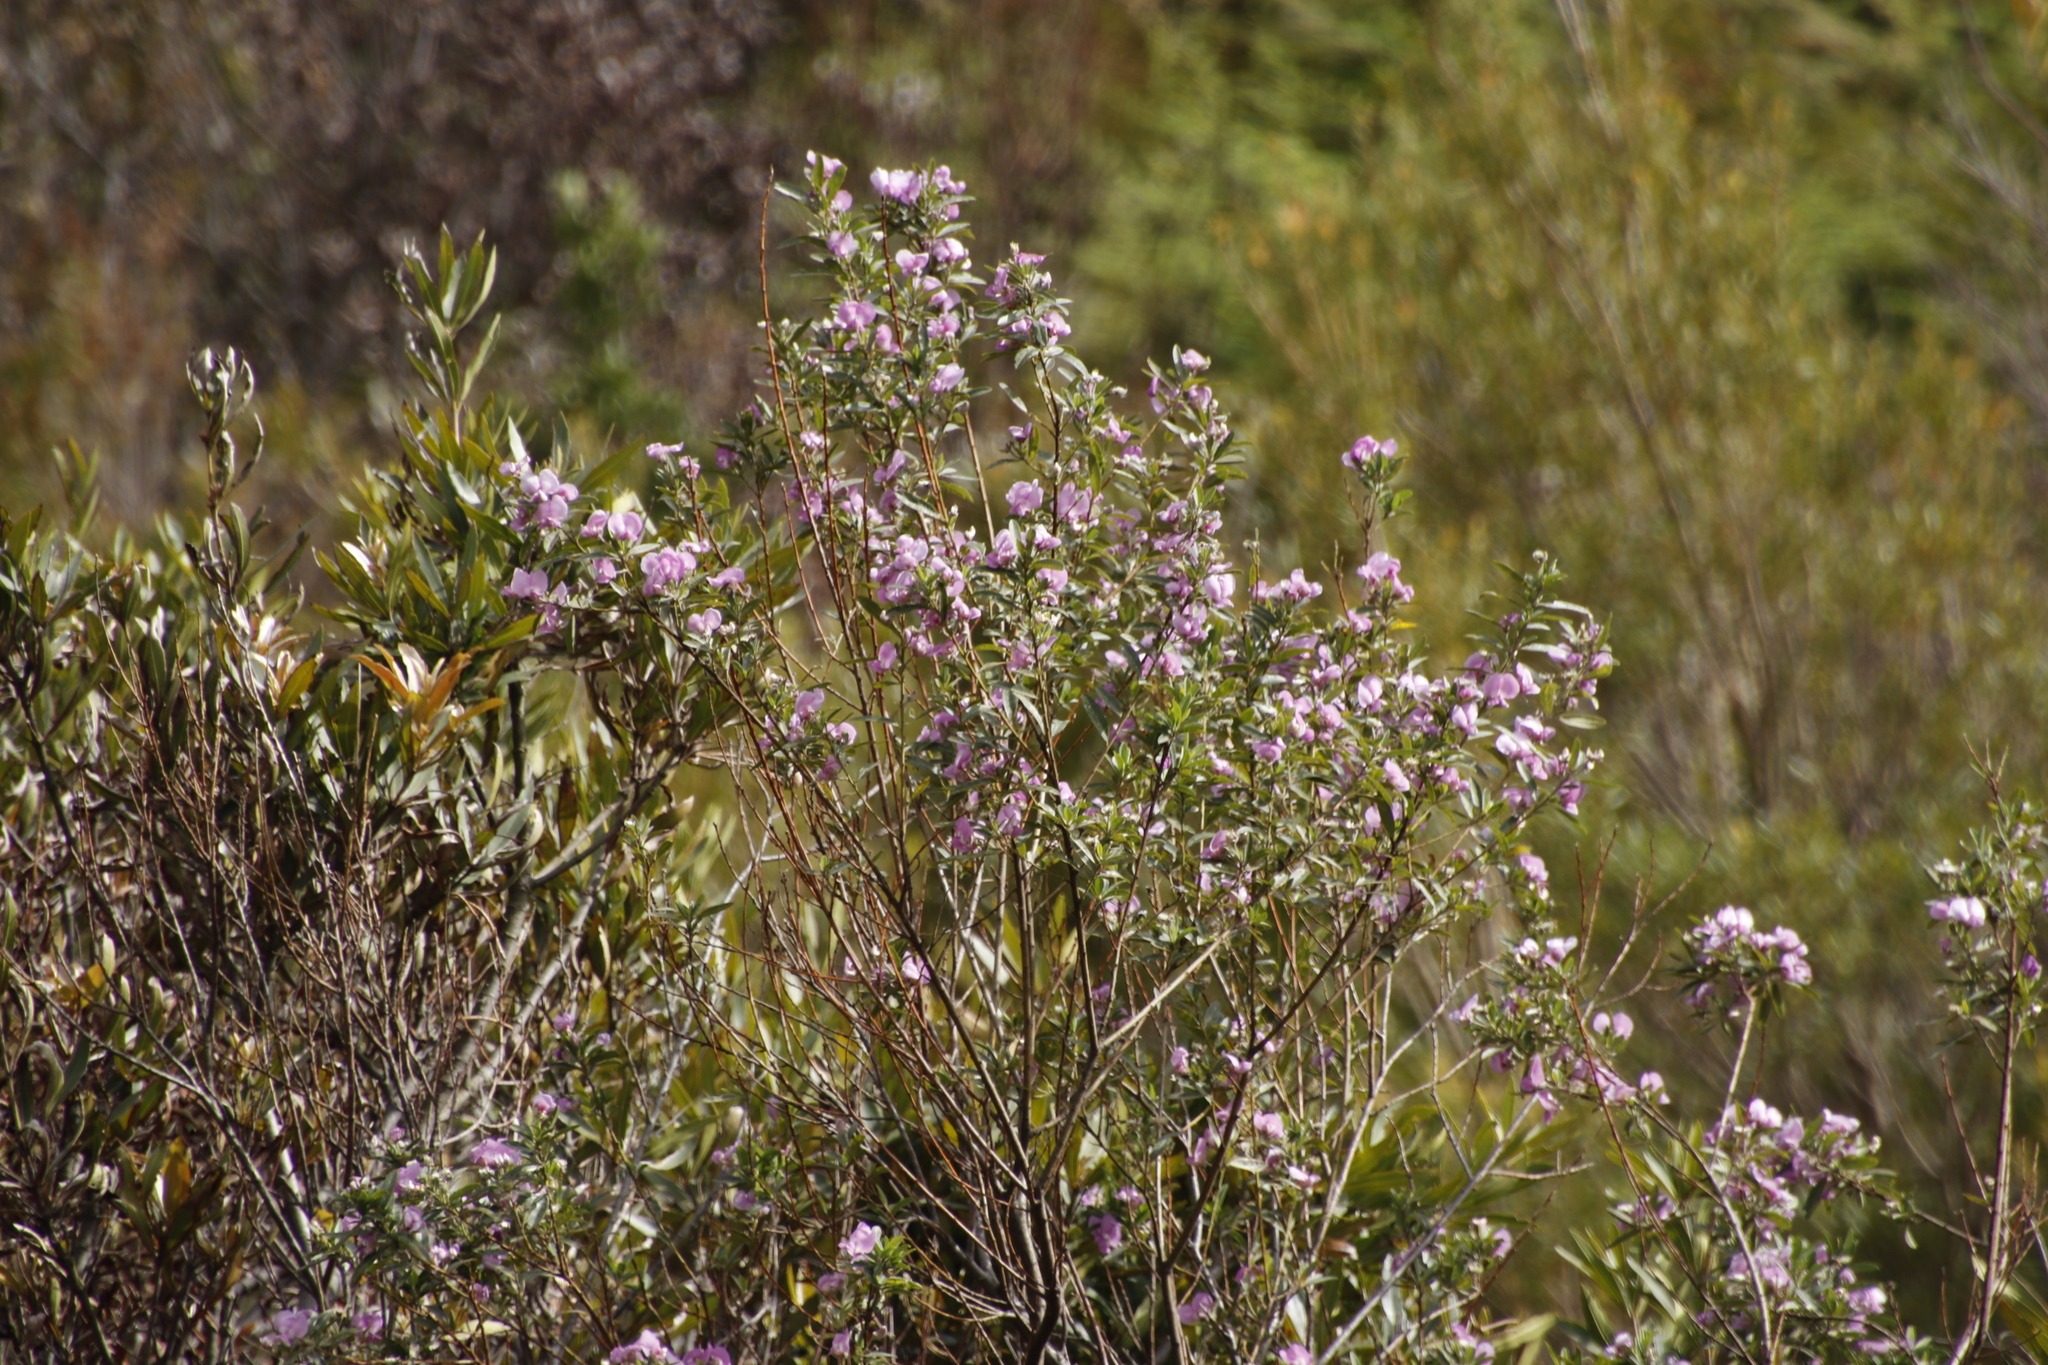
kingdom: Plantae
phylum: Tracheophyta
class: Magnoliopsida
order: Fabales
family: Fabaceae
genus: Podalyria
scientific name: Podalyria calyptrata
